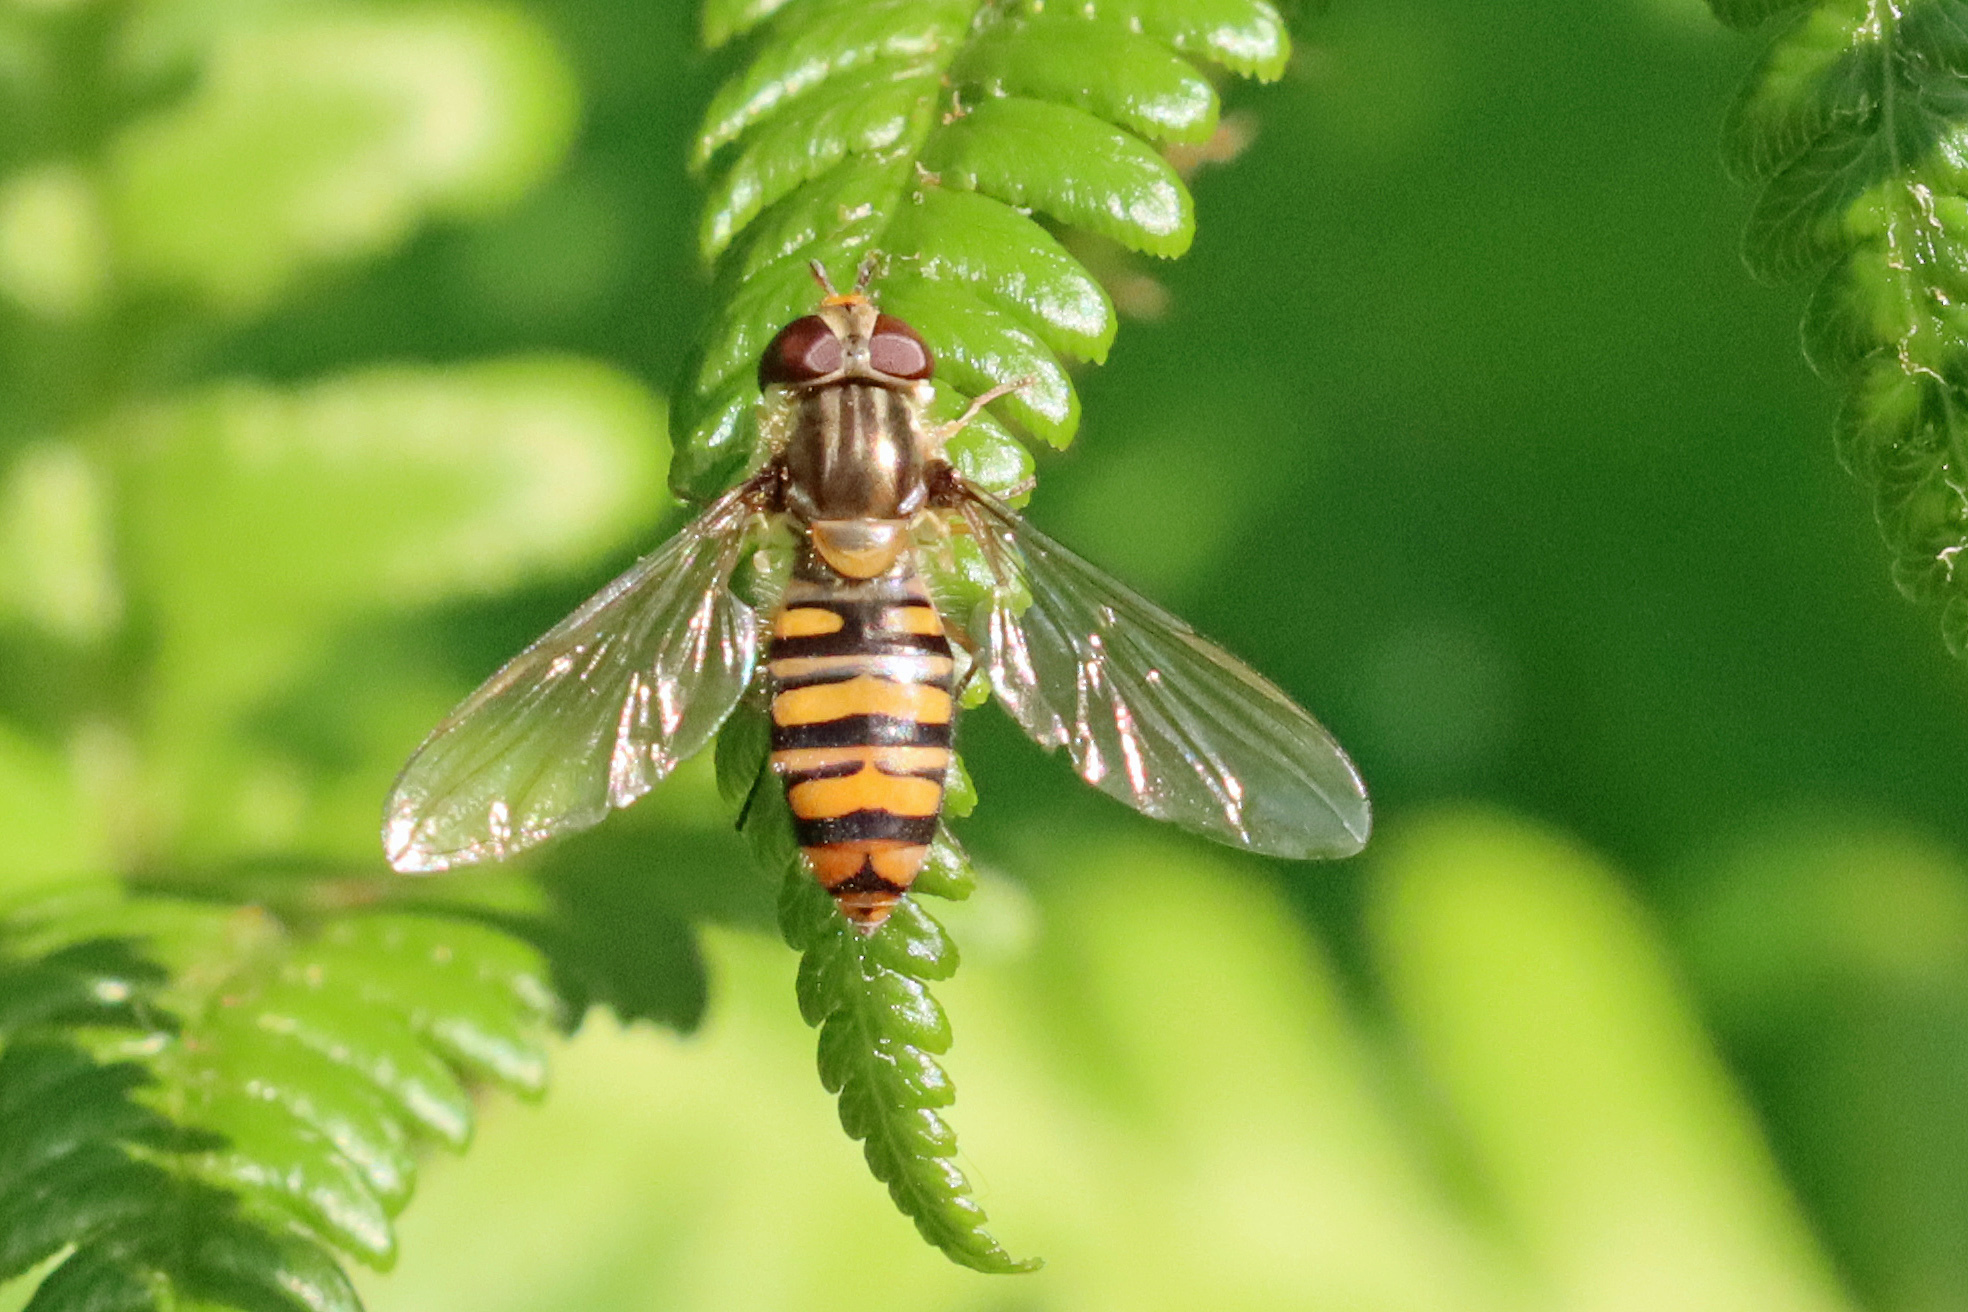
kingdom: Animalia
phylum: Arthropoda
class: Insecta
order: Diptera
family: Syrphidae
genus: Episyrphus
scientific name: Episyrphus balteatus
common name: Marmalade hoverfly
